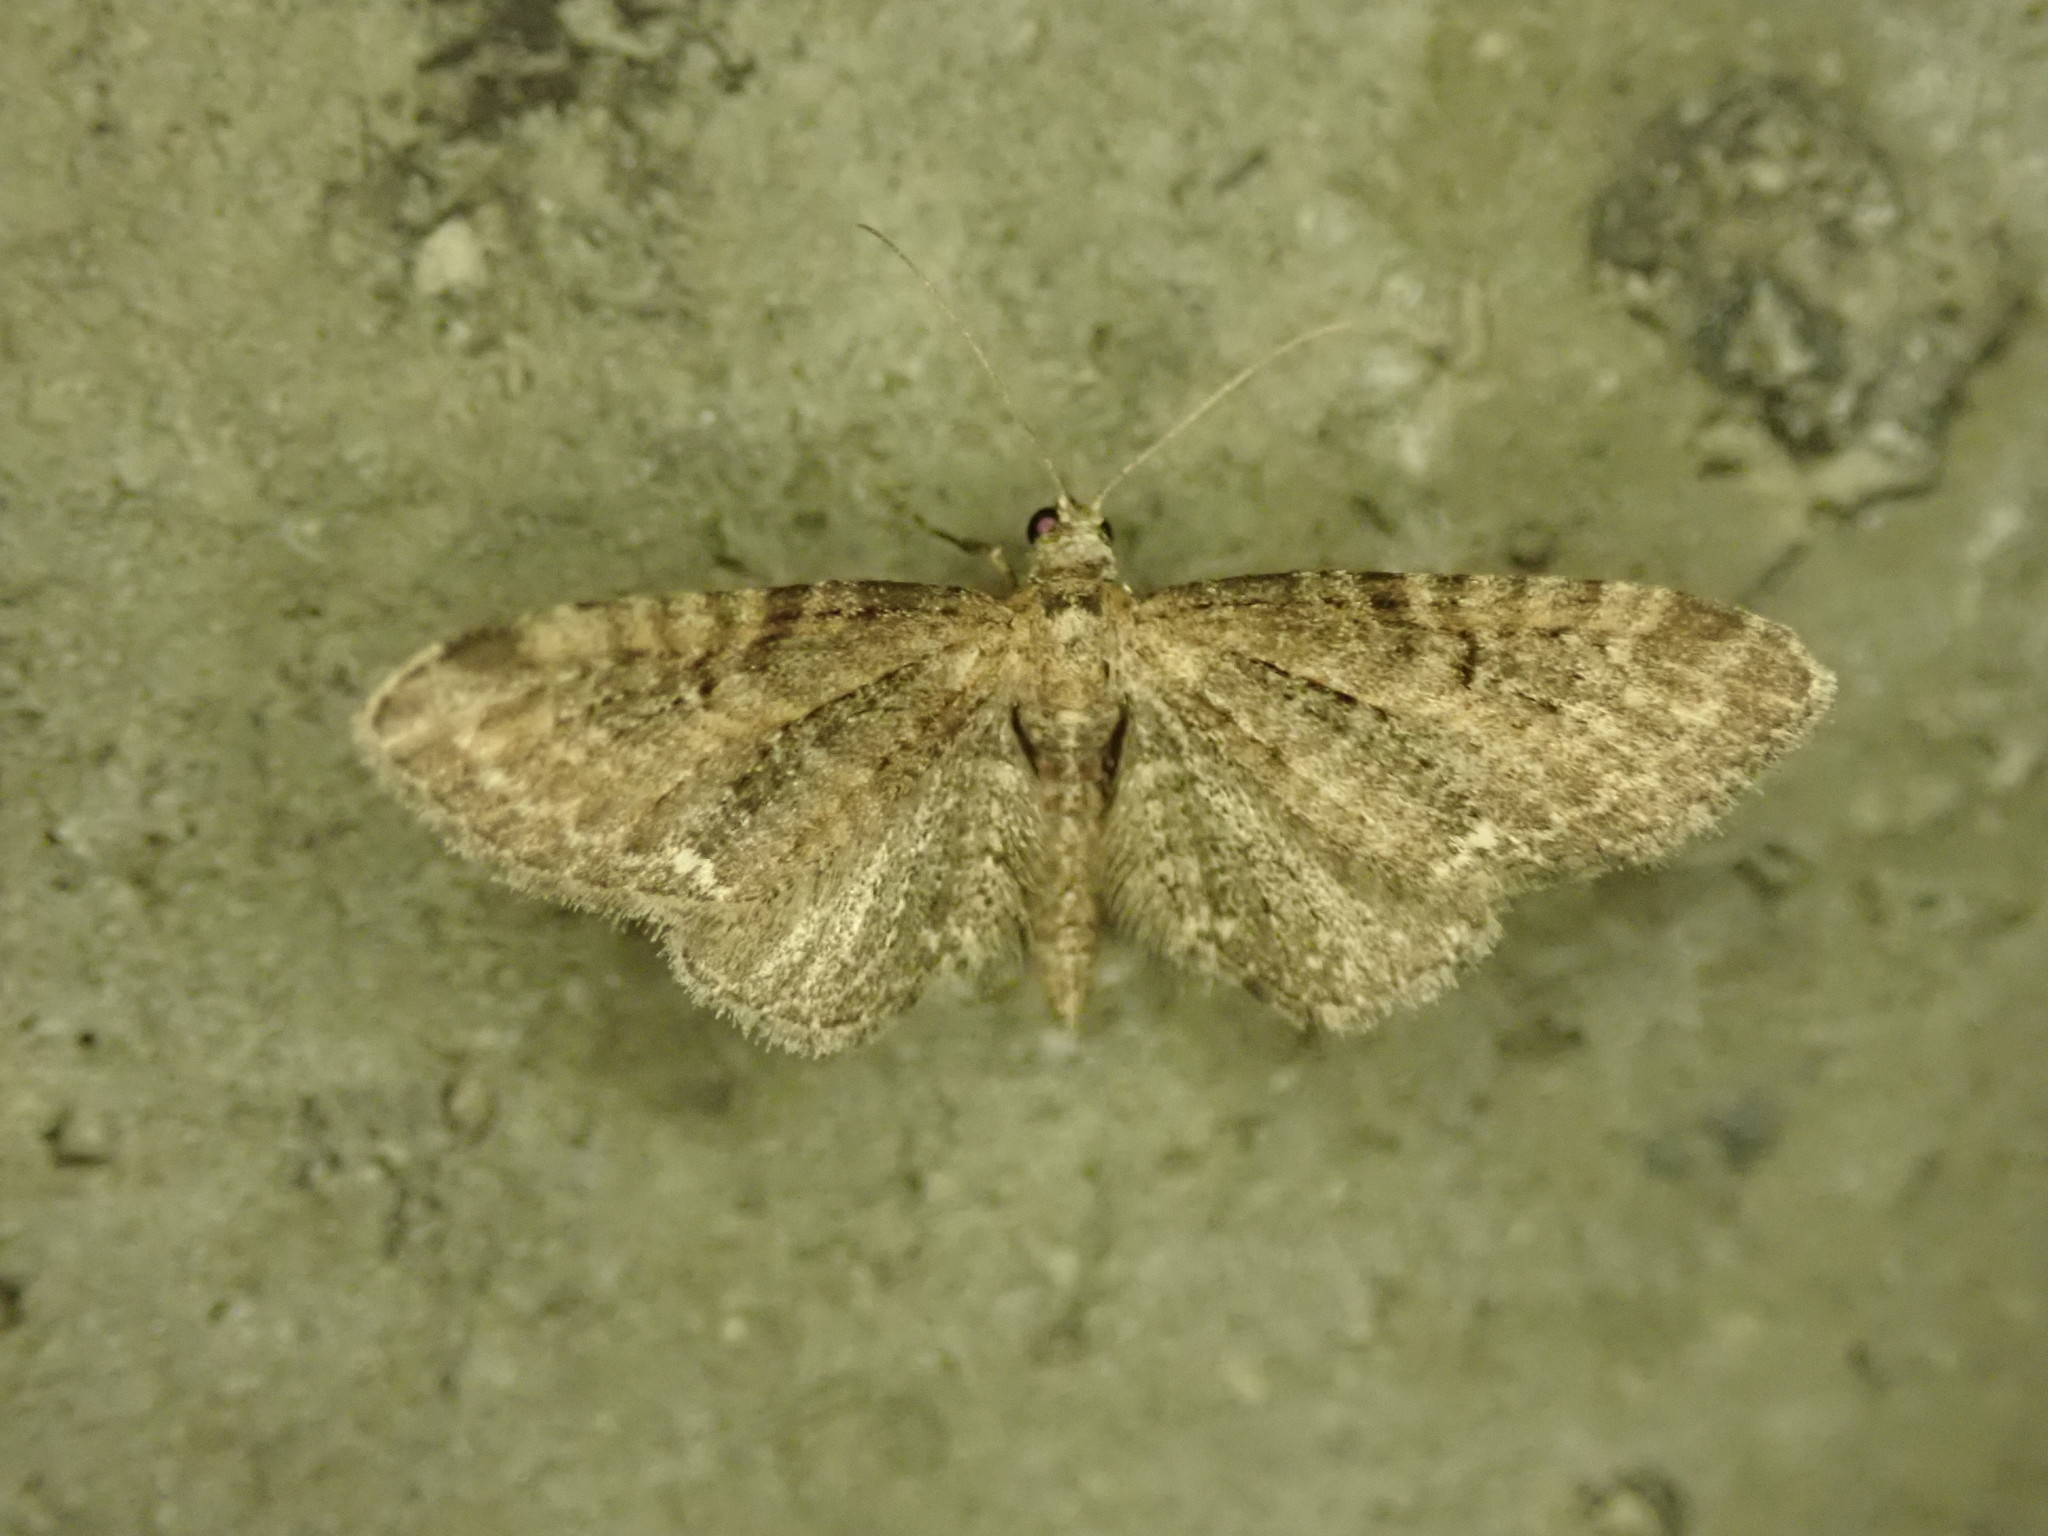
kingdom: Animalia
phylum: Arthropoda
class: Insecta
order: Lepidoptera
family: Geometridae
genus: Eupithecia
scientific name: Eupithecia vulgata
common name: Common pug
